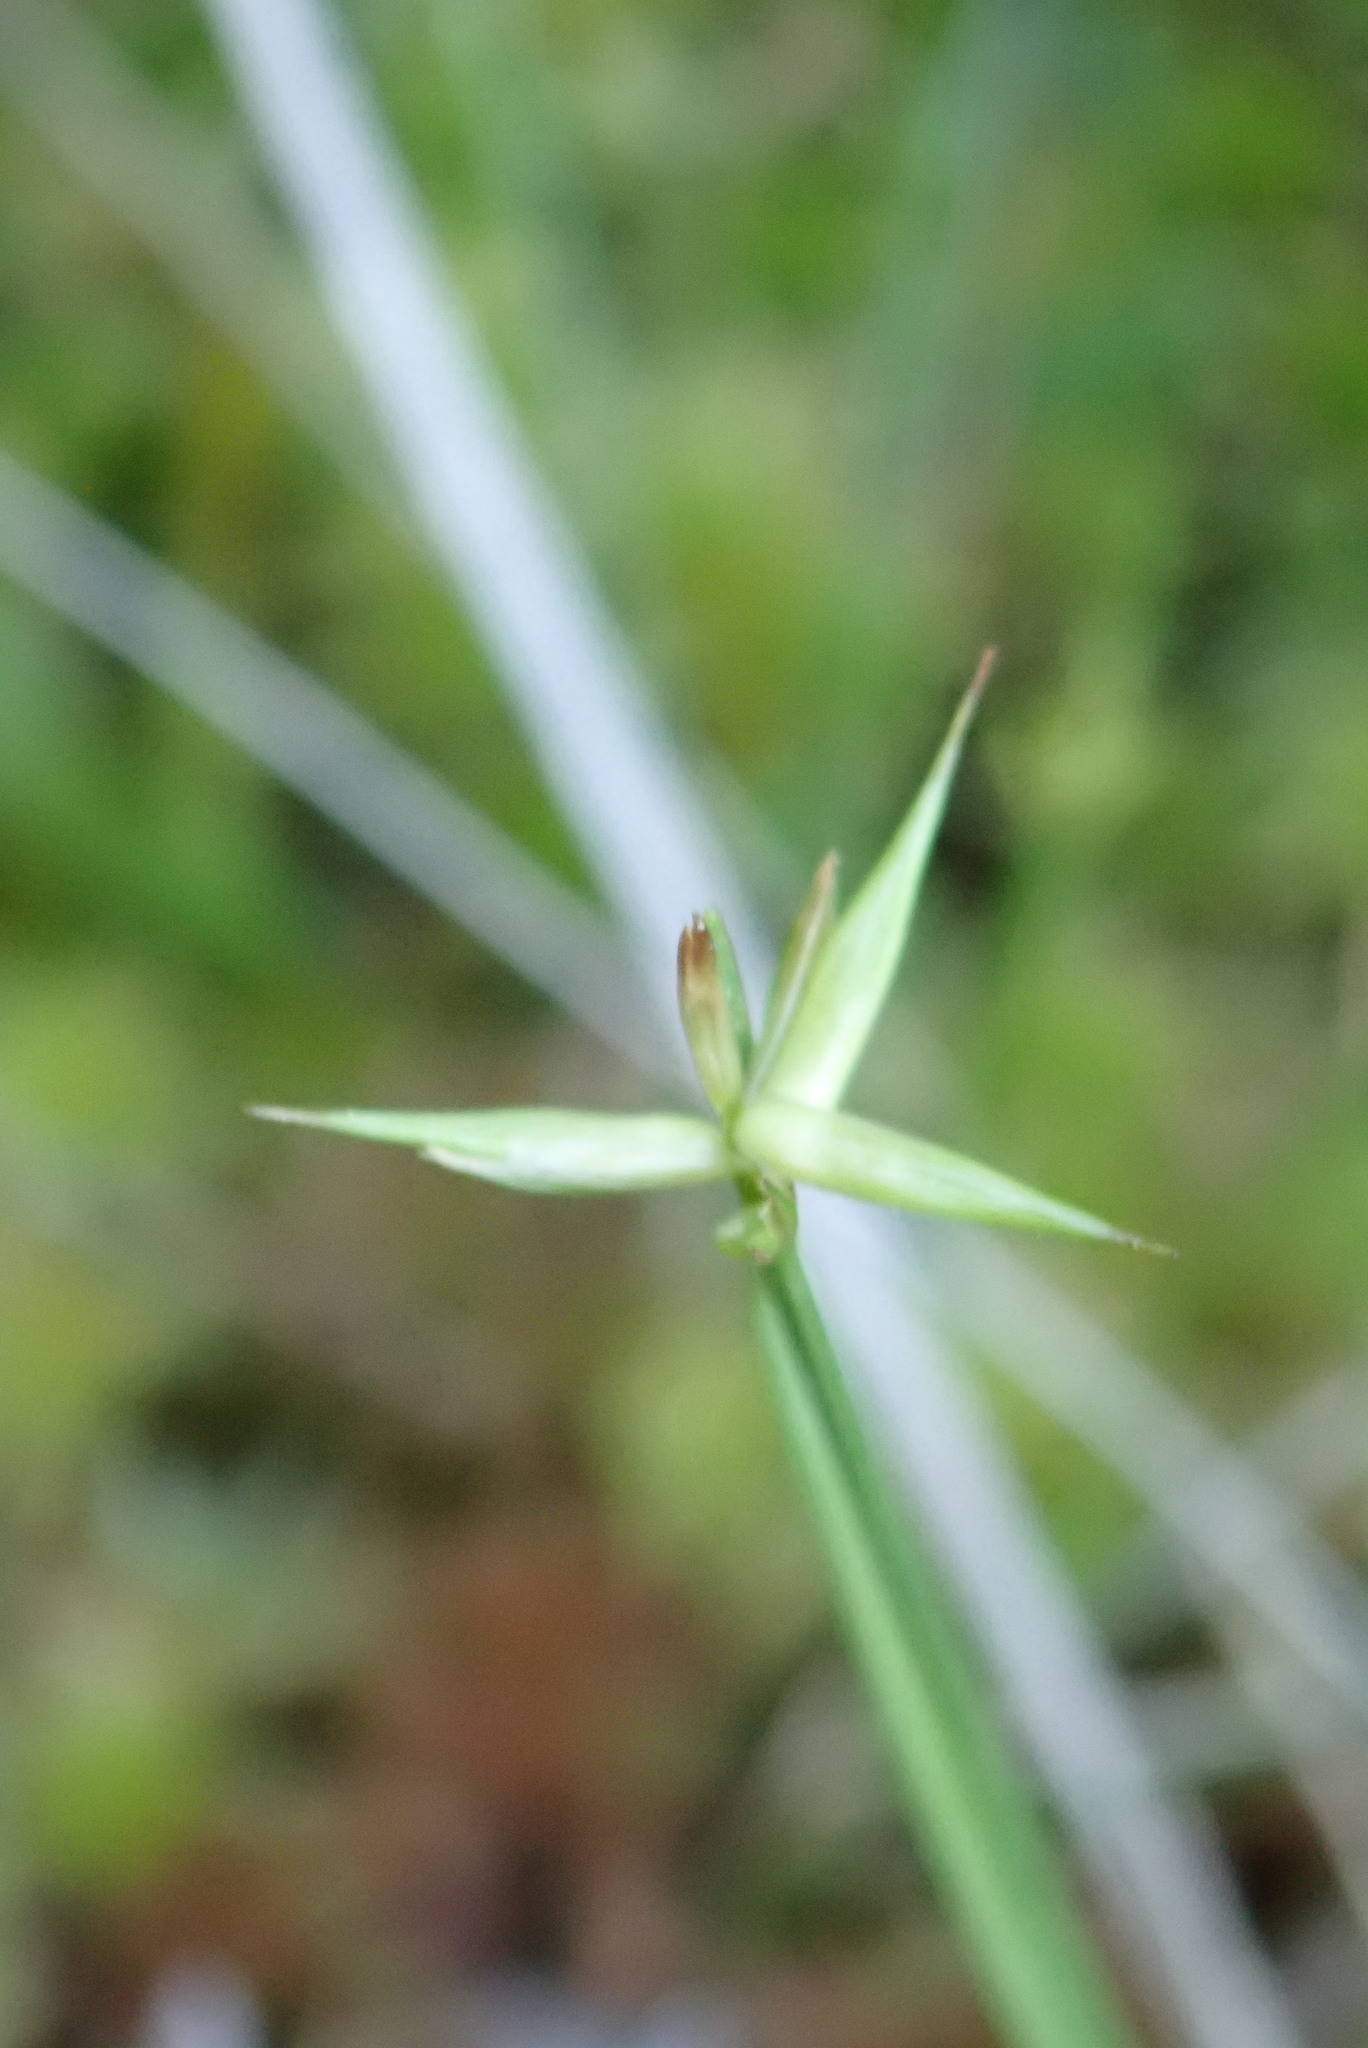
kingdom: Plantae
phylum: Tracheophyta
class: Liliopsida
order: Poales
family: Cyperaceae
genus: Carex
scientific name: Carex pauciflora
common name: Few-flowered sedge
